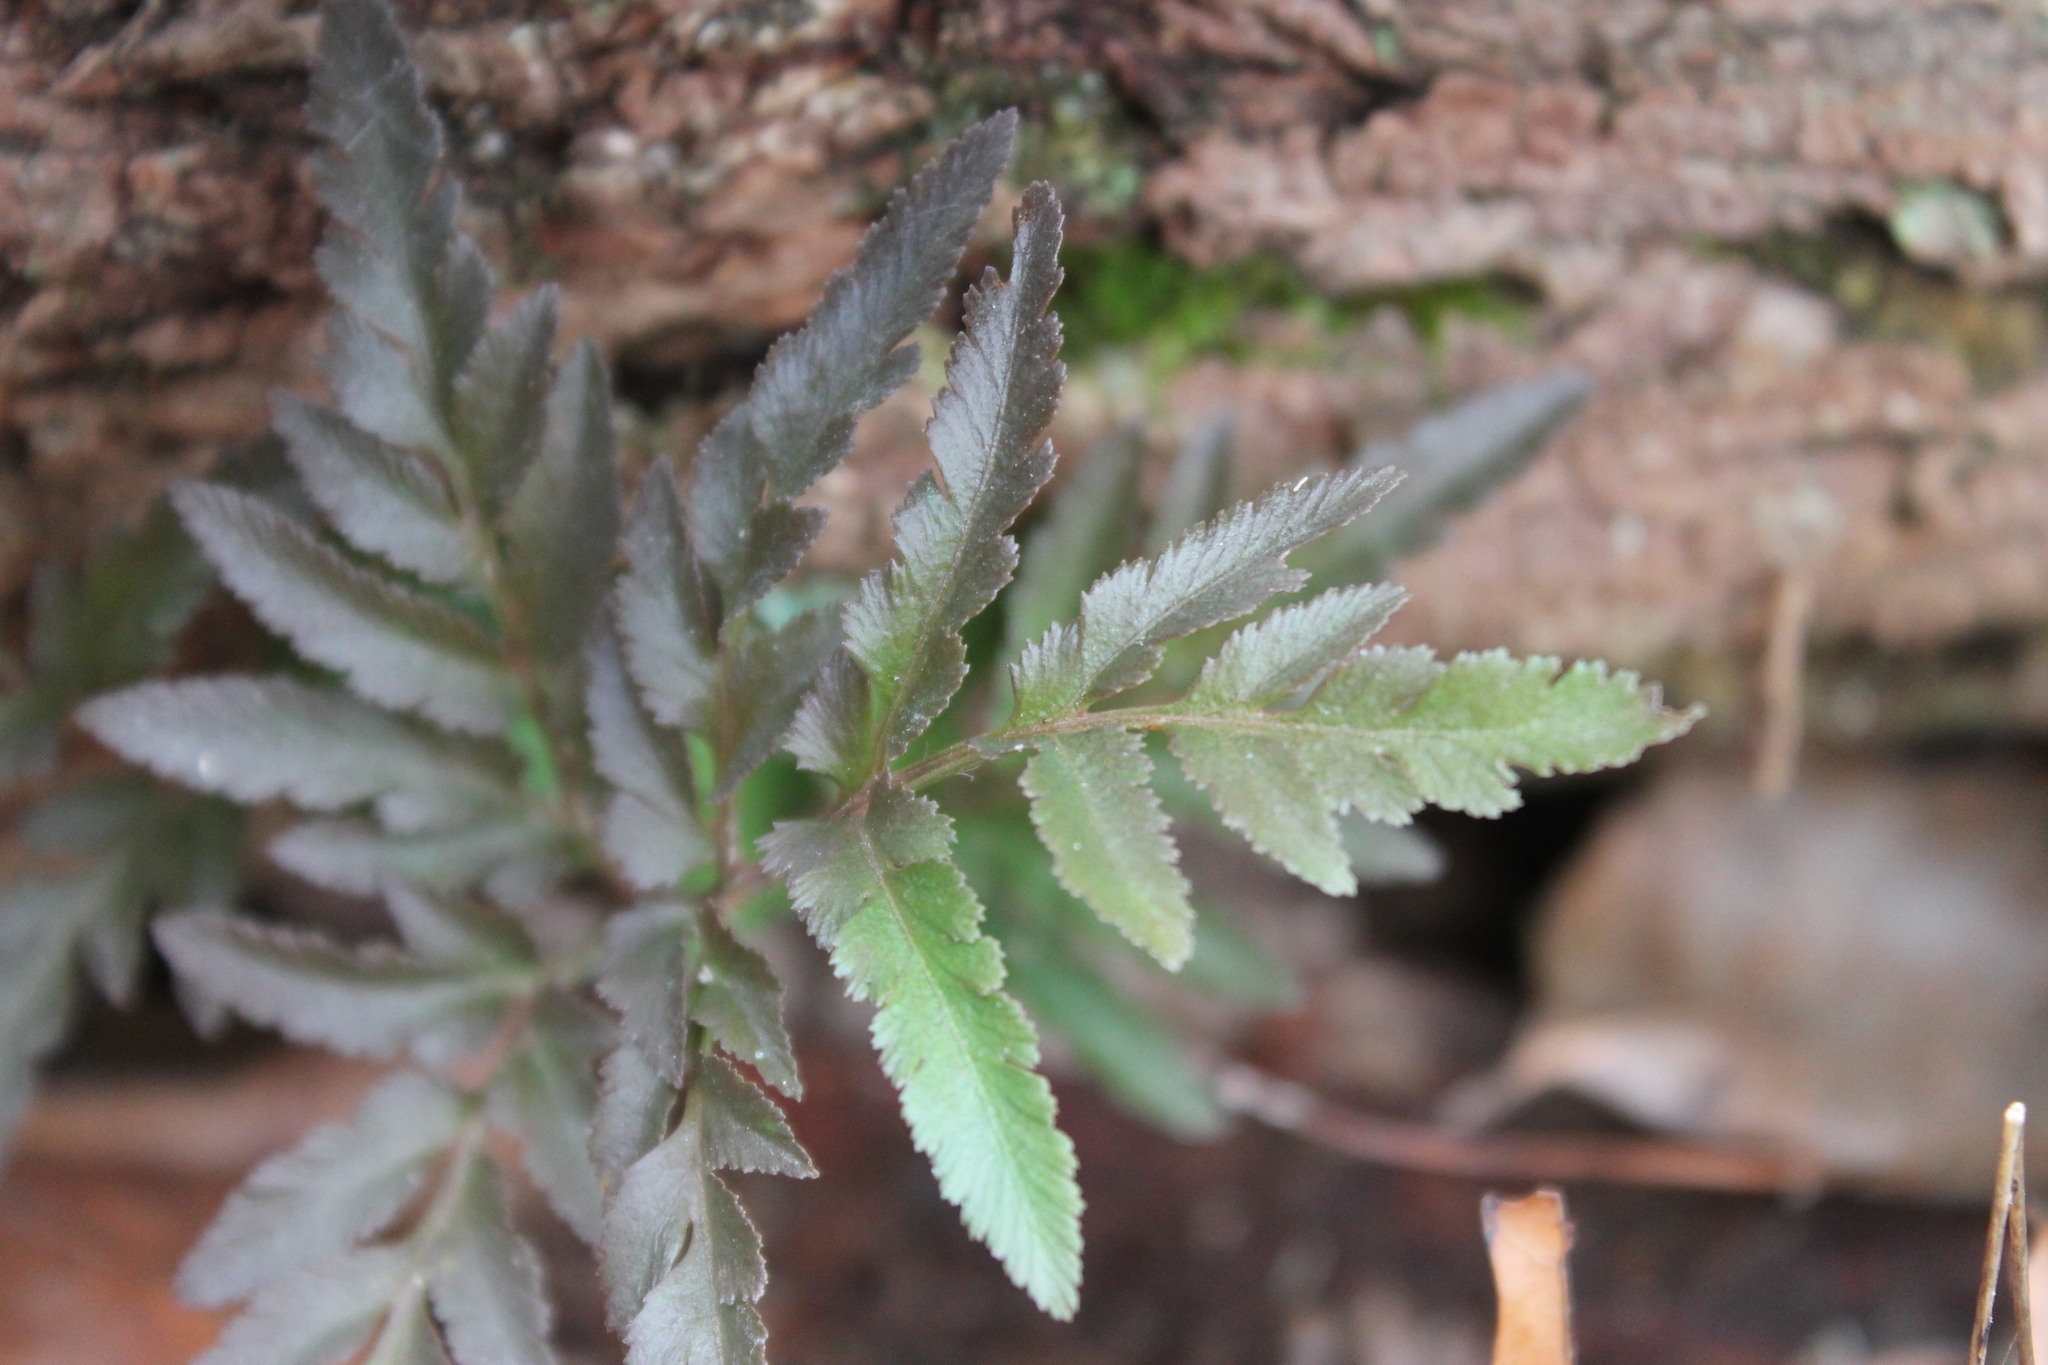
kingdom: Plantae
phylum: Tracheophyta
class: Polypodiopsida
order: Ophioglossales
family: Ophioglossaceae
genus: Sceptridium
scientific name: Sceptridium dissectum
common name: Cut-leaved grapefern
